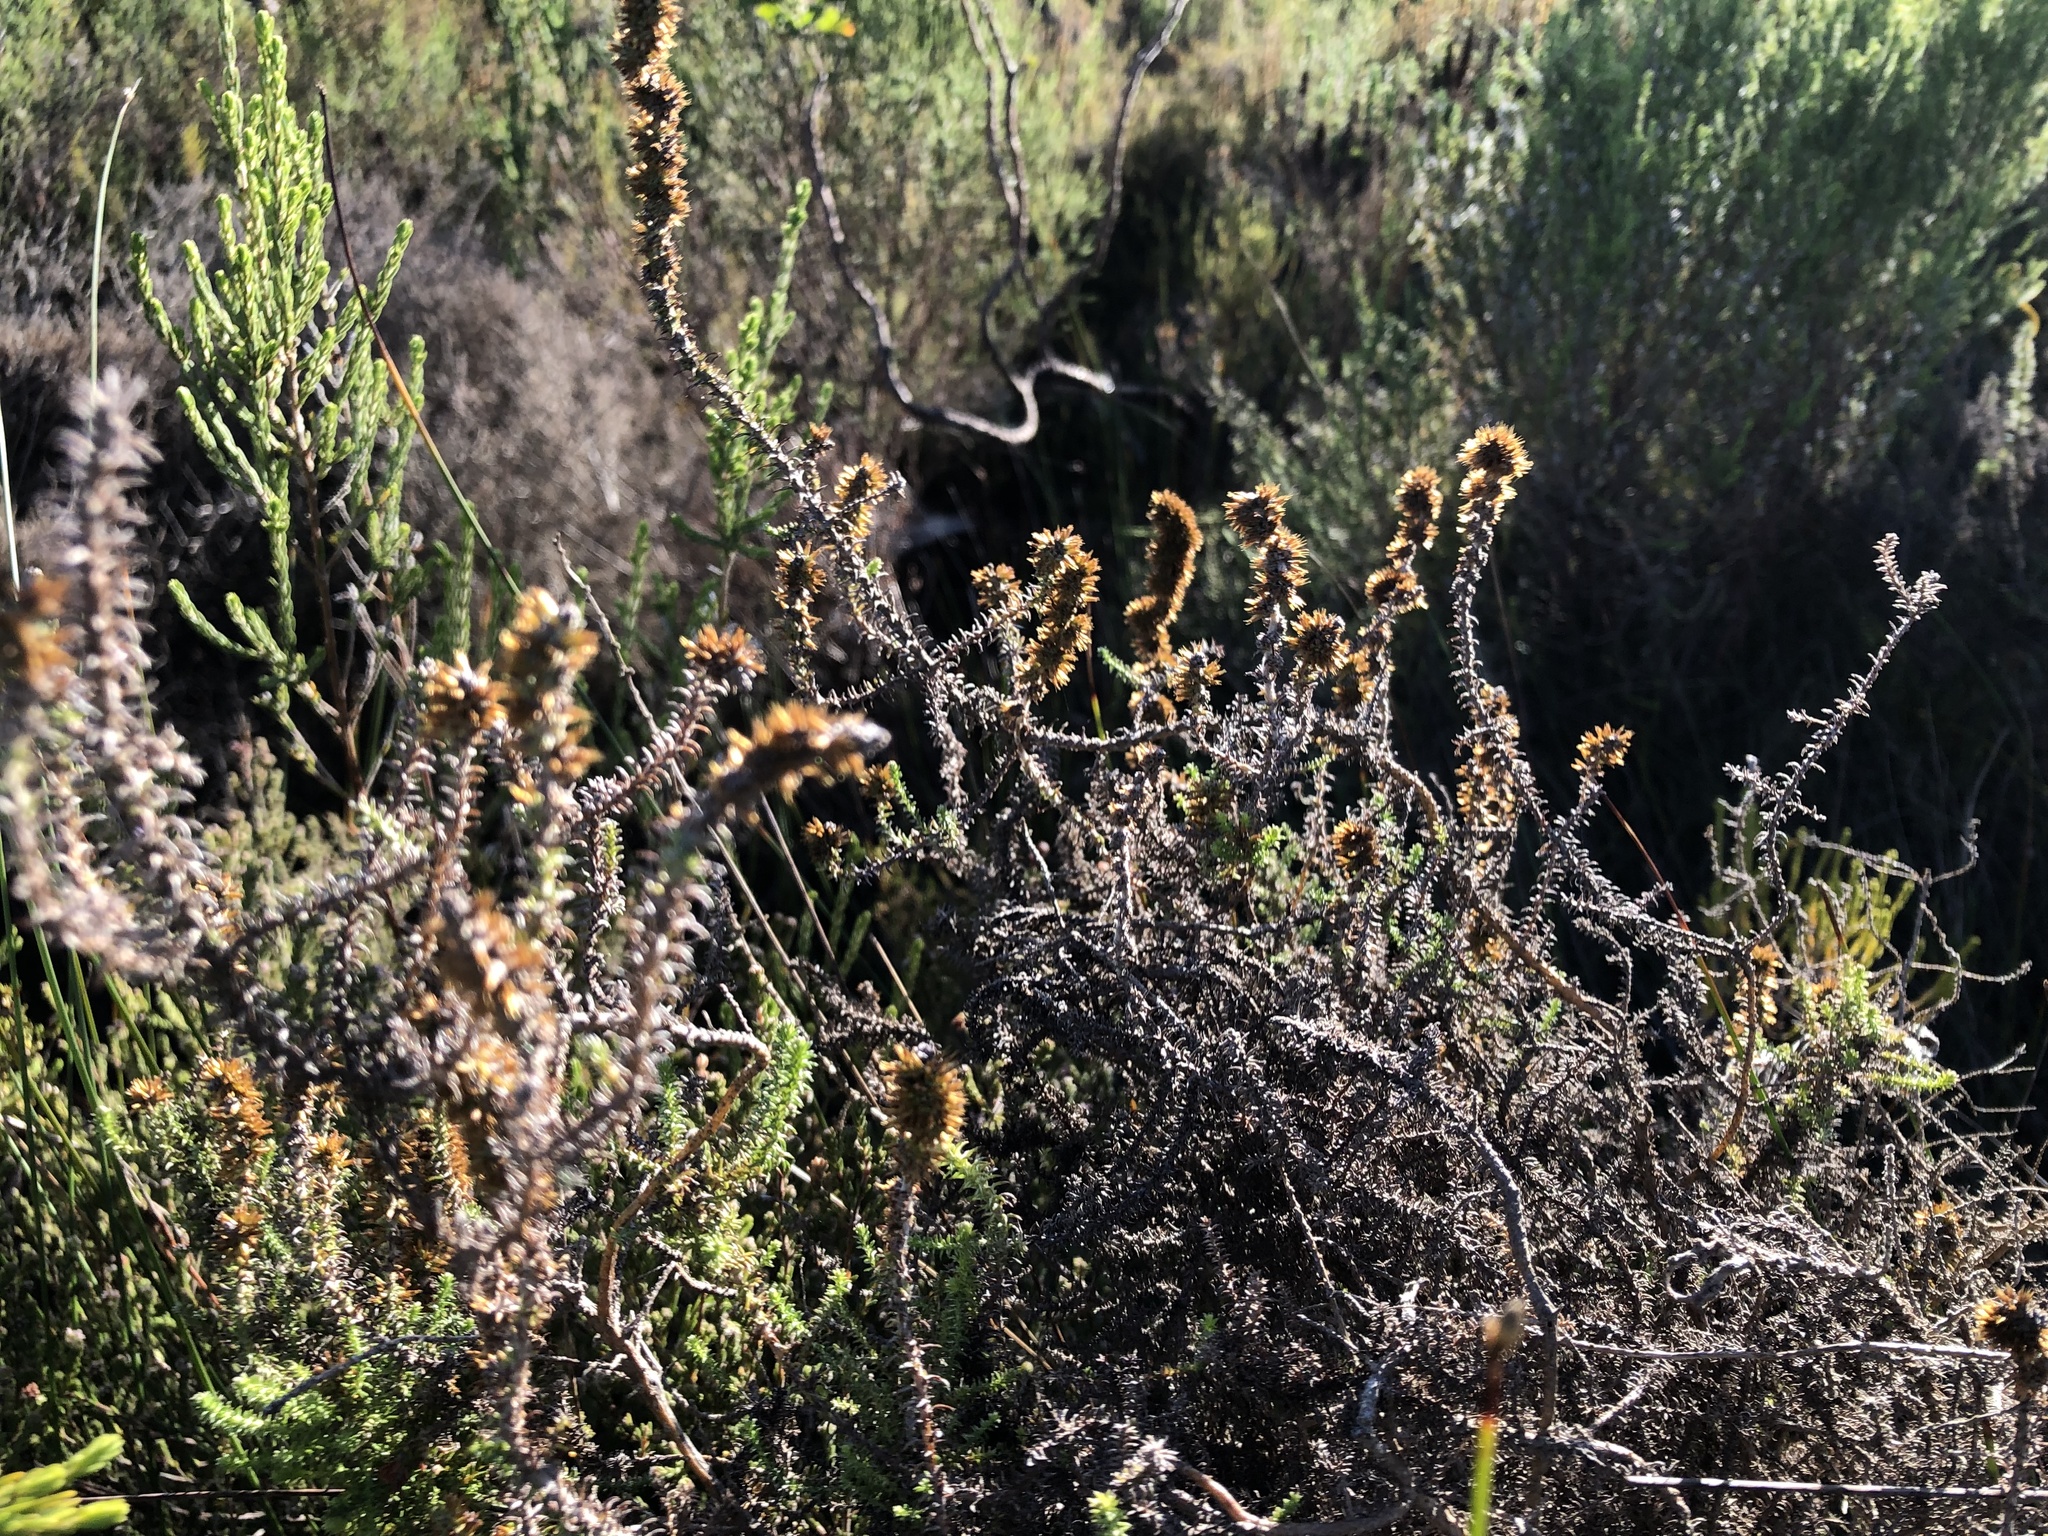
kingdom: Plantae
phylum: Tracheophyta
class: Magnoliopsida
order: Asterales
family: Asteraceae
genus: Seriphium
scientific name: Seriphium plumosum
